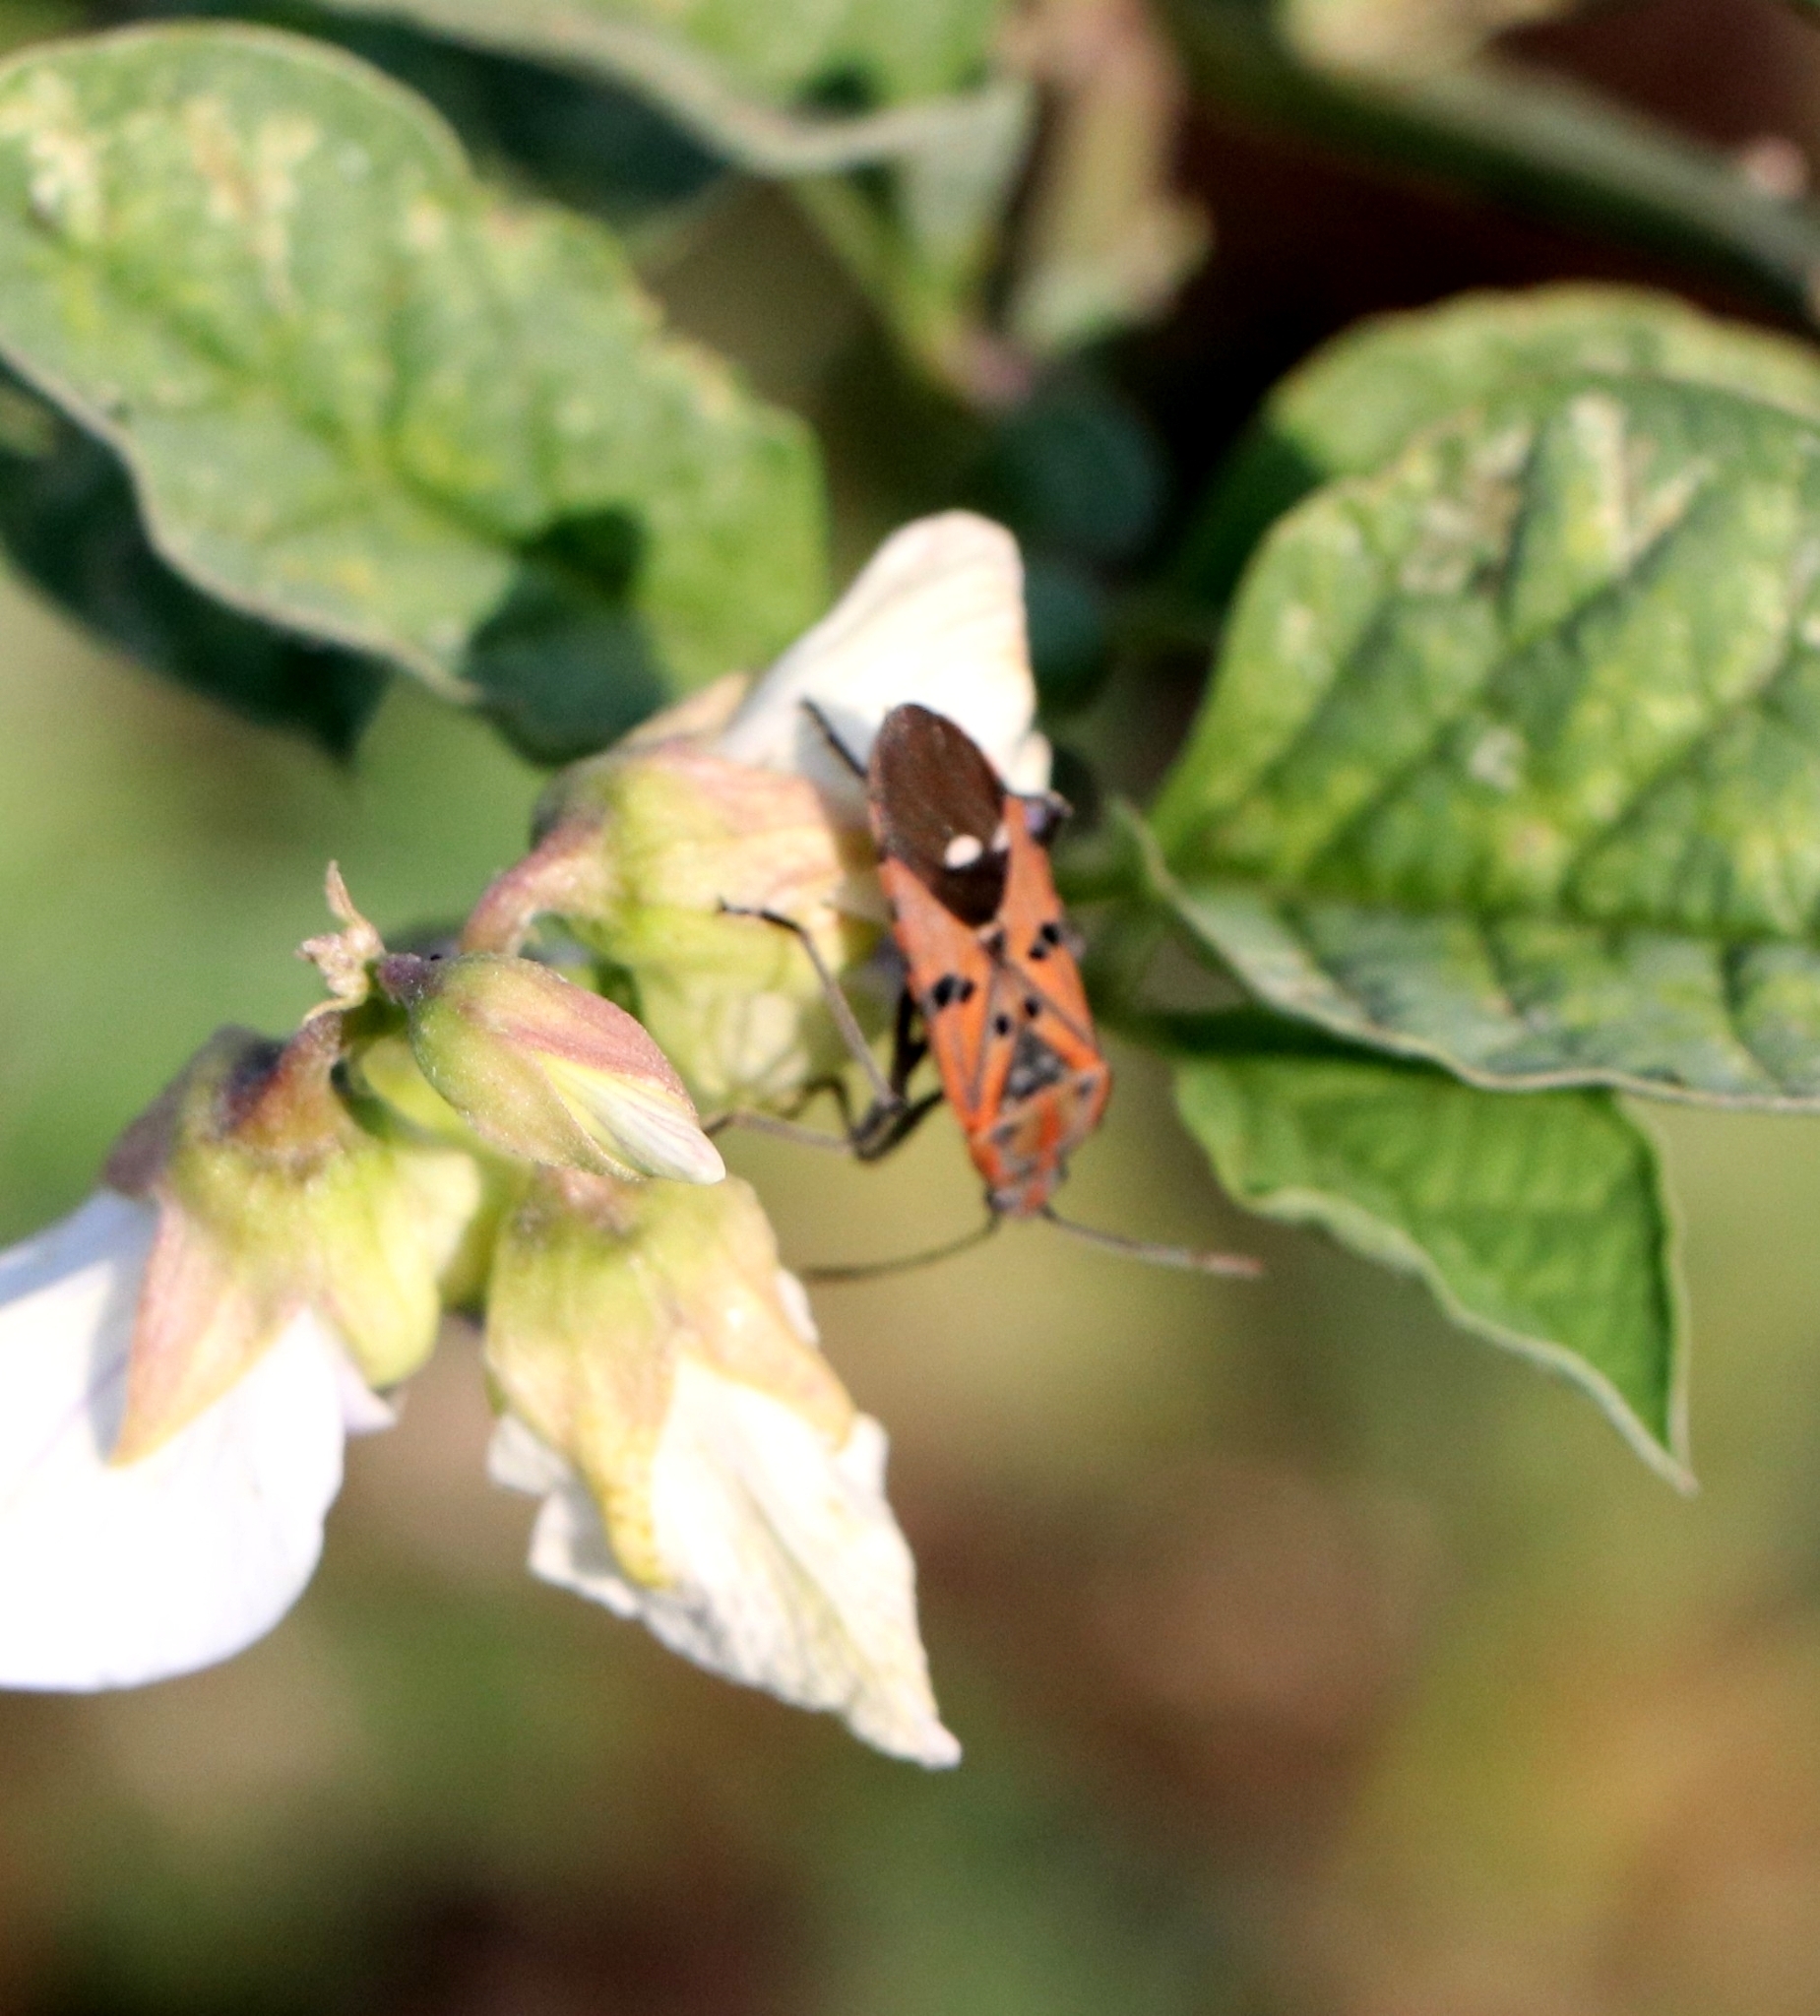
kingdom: Animalia
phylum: Arthropoda
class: Insecta
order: Hemiptera
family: Lygaeidae
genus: Spilostethus
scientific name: Spilostethus pandurus
